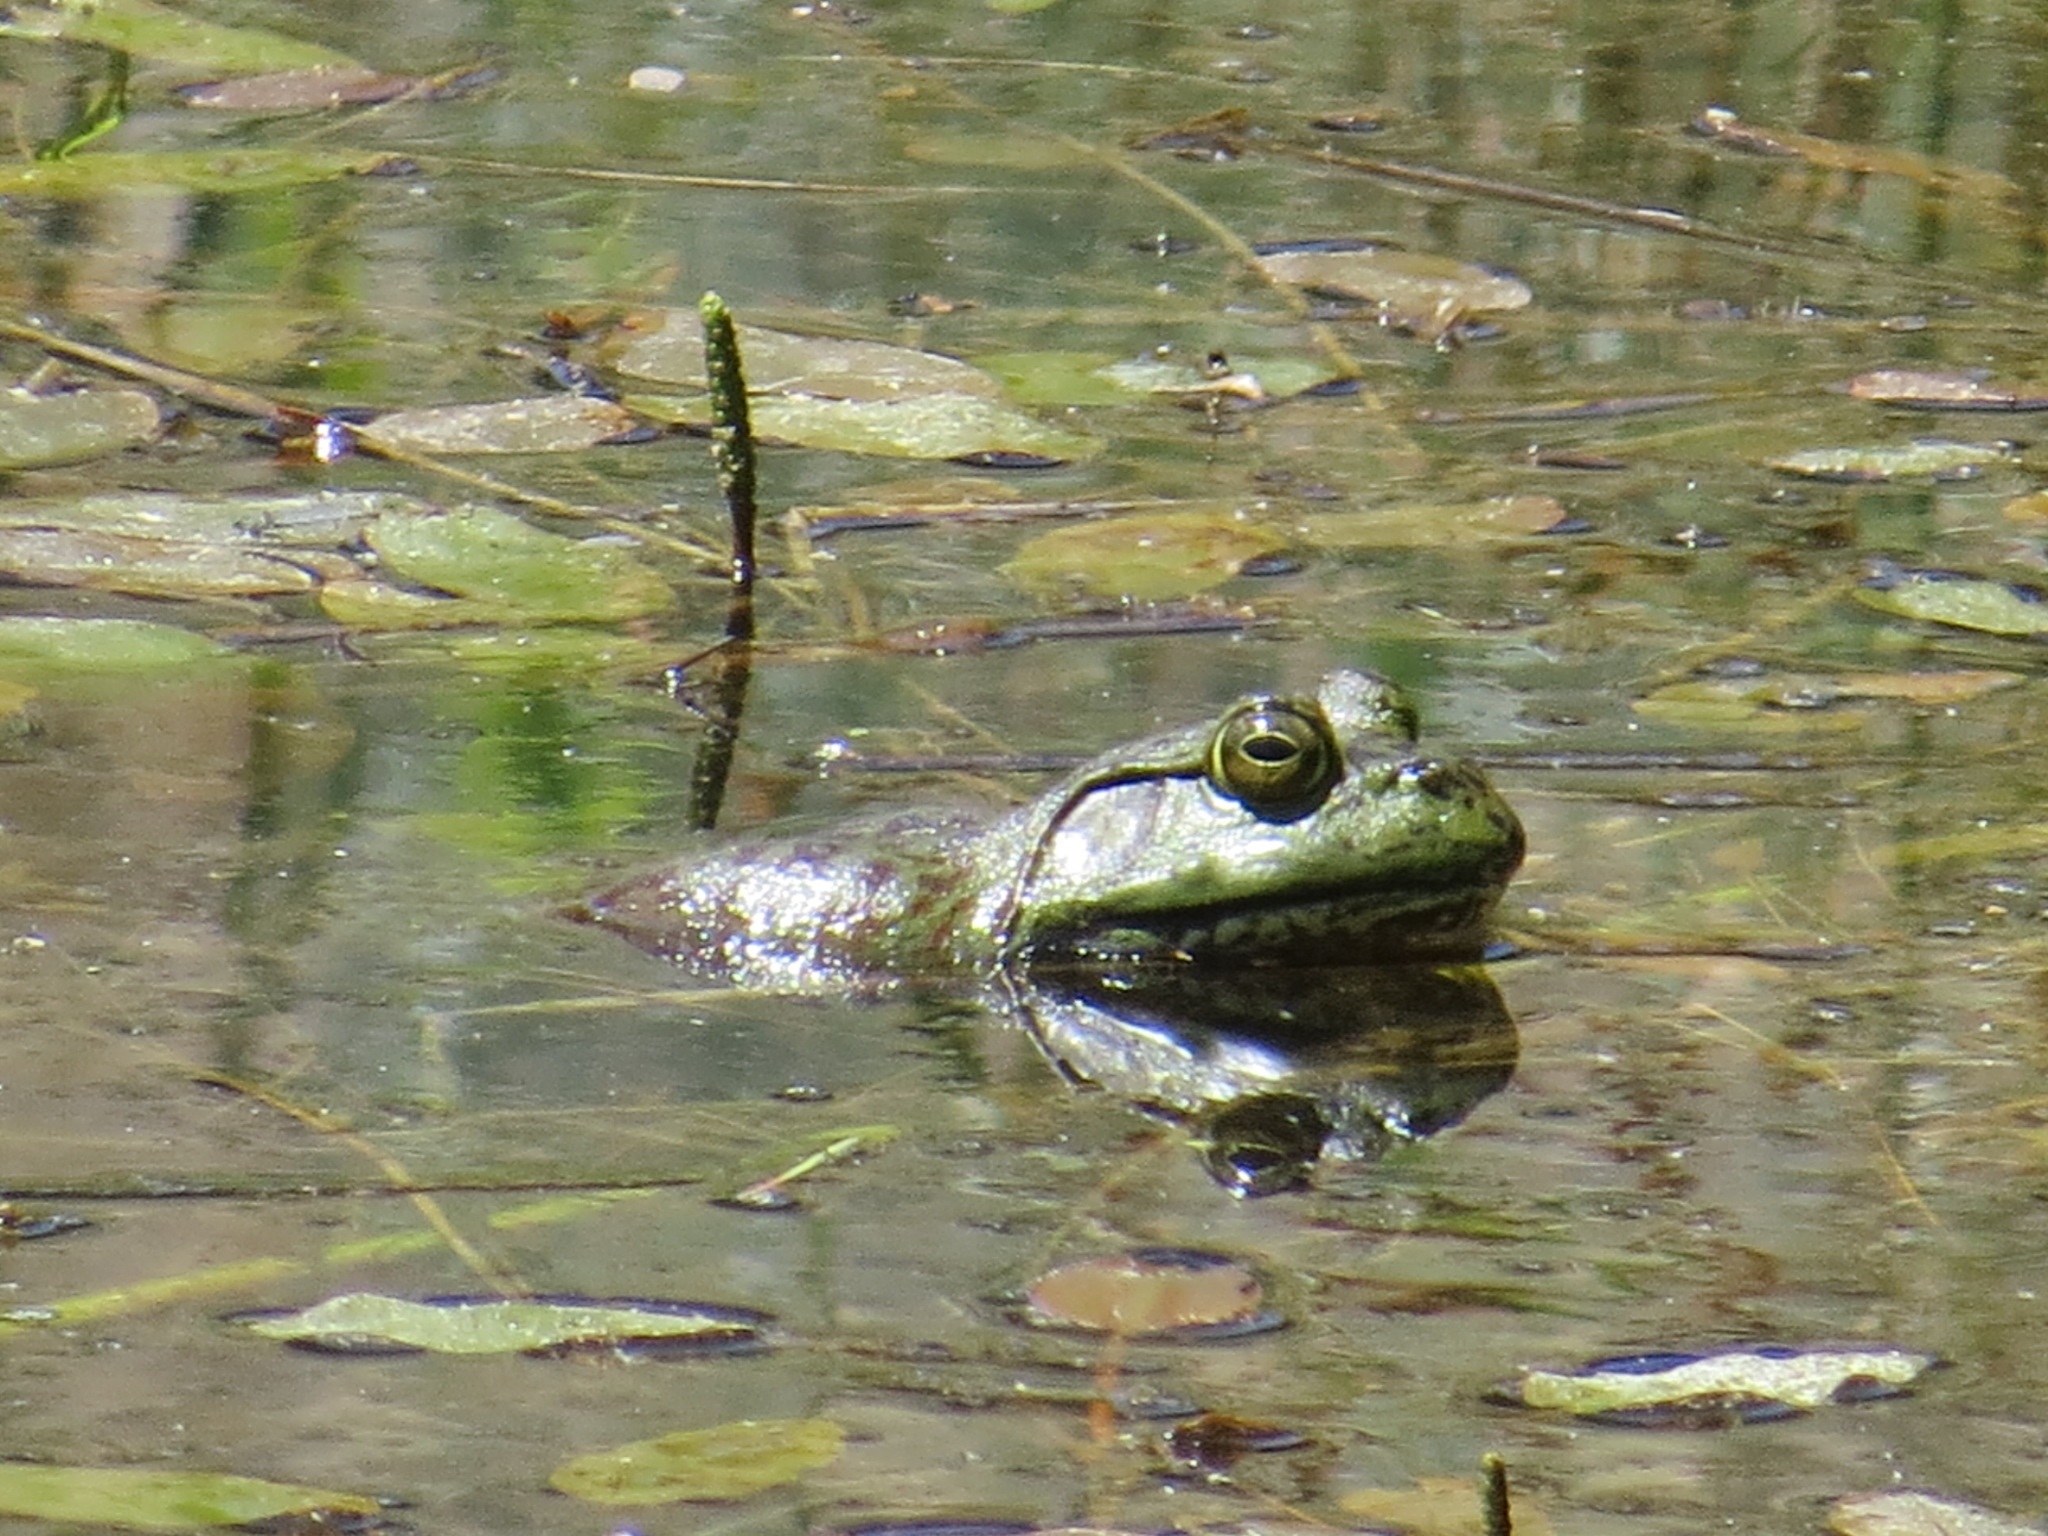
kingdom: Animalia
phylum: Chordata
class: Amphibia
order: Anura
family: Ranidae
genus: Lithobates
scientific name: Lithobates catesbeianus
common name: American bullfrog
